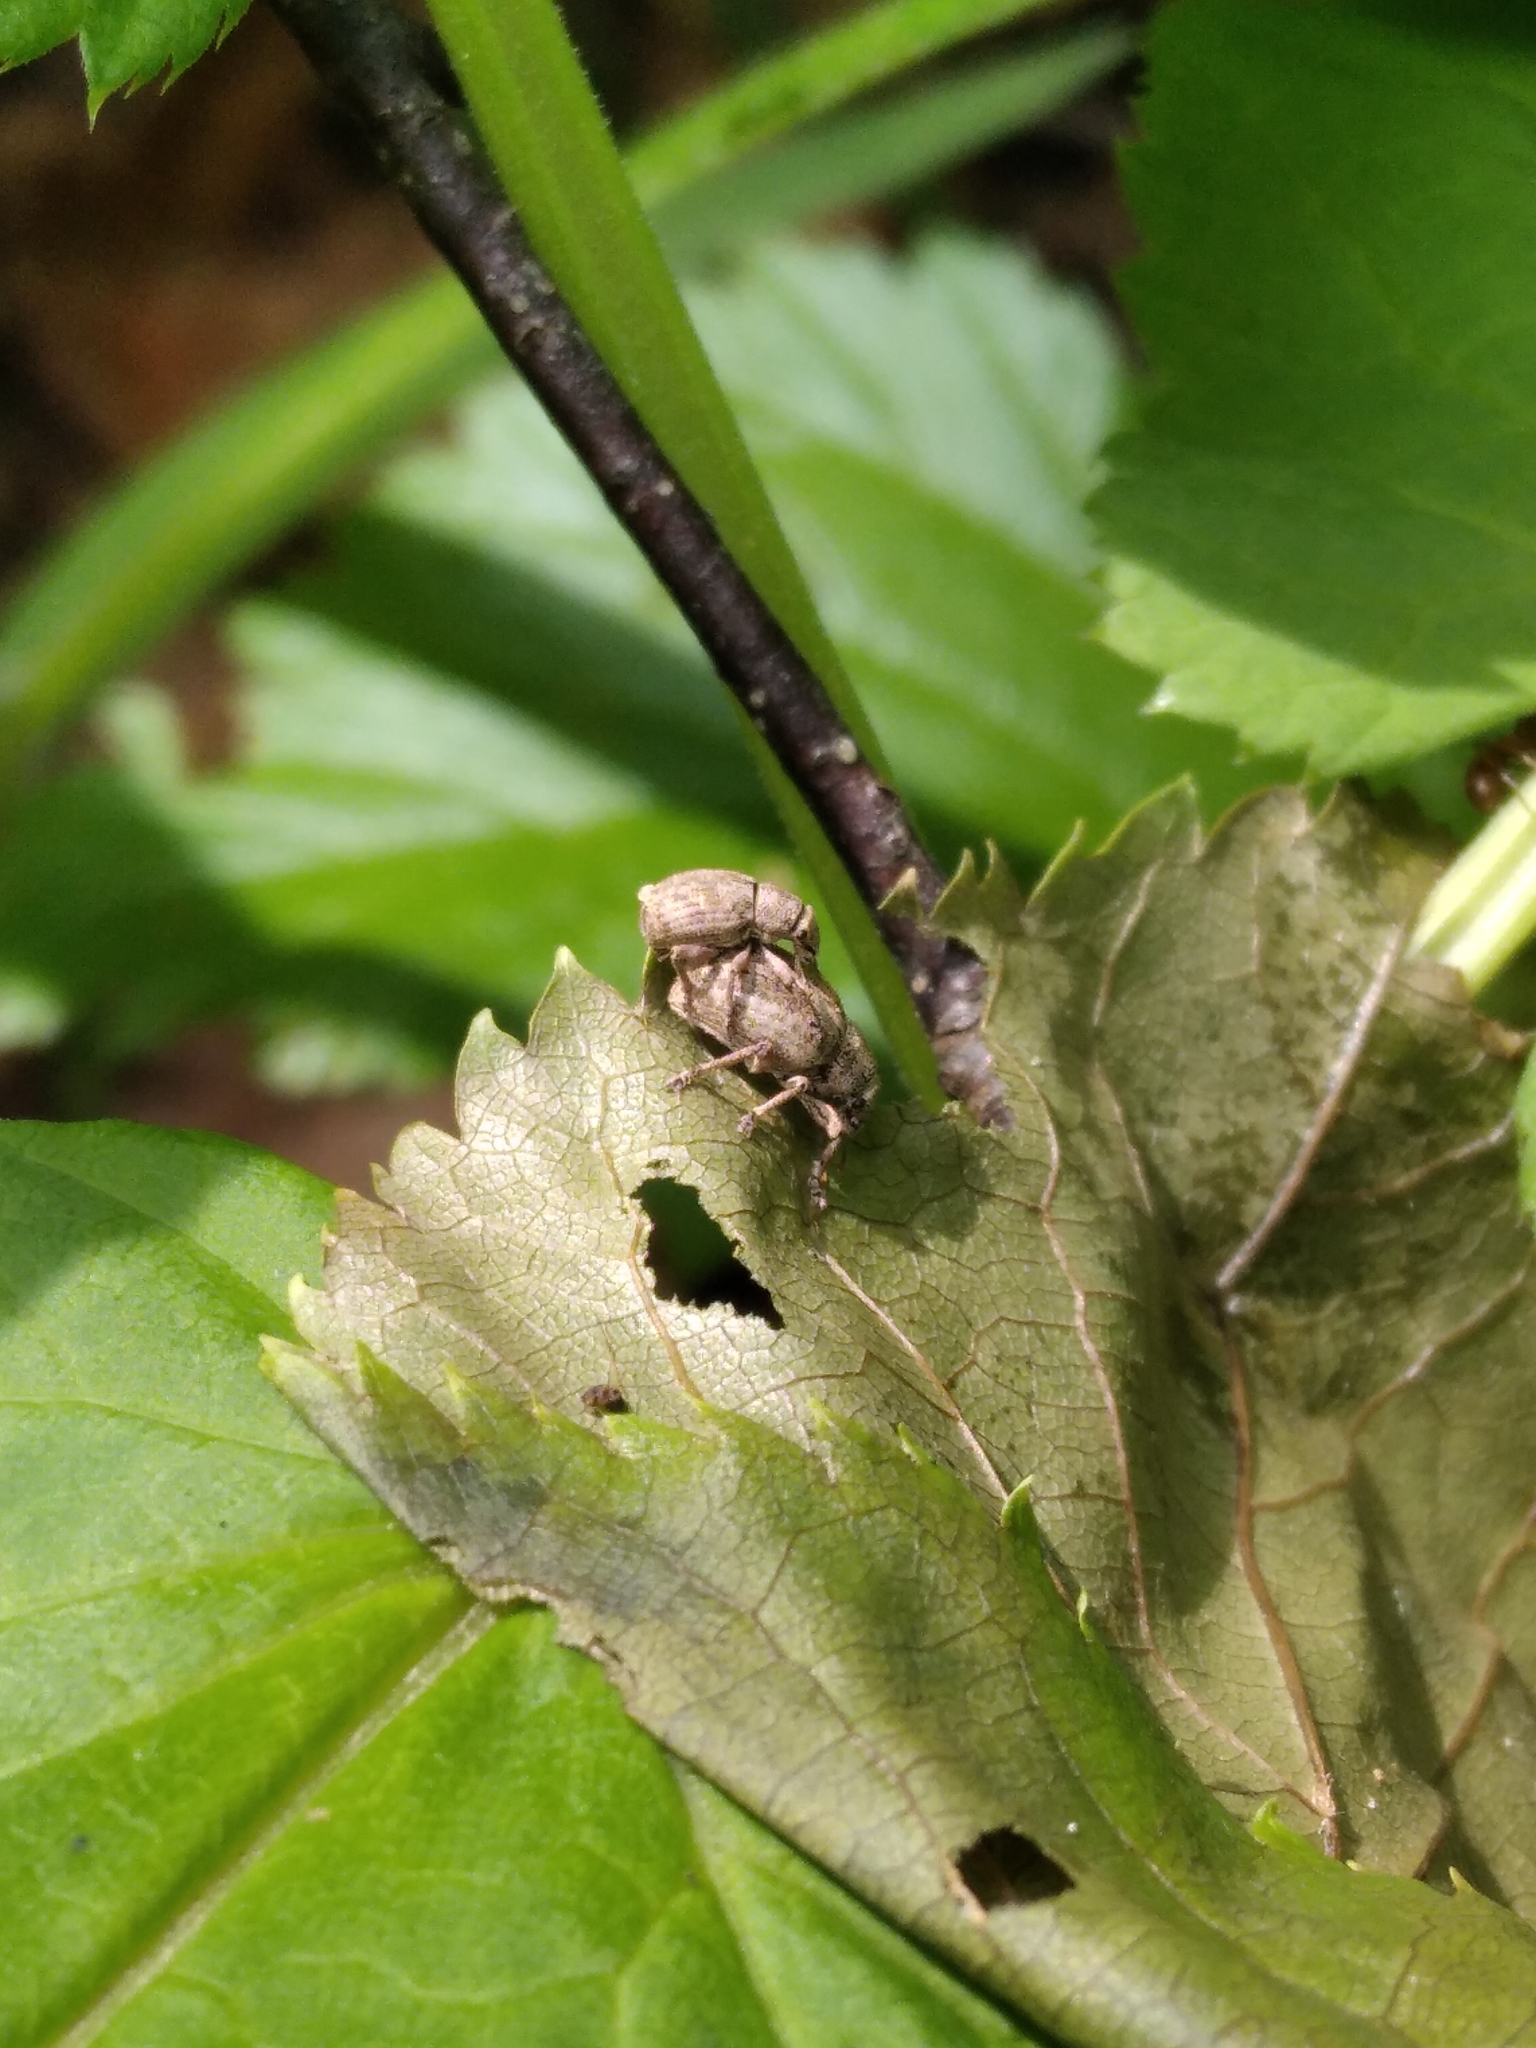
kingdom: Animalia
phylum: Arthropoda
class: Insecta
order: Coleoptera
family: Curculionidae
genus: Strophosoma
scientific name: Strophosoma capitatum
